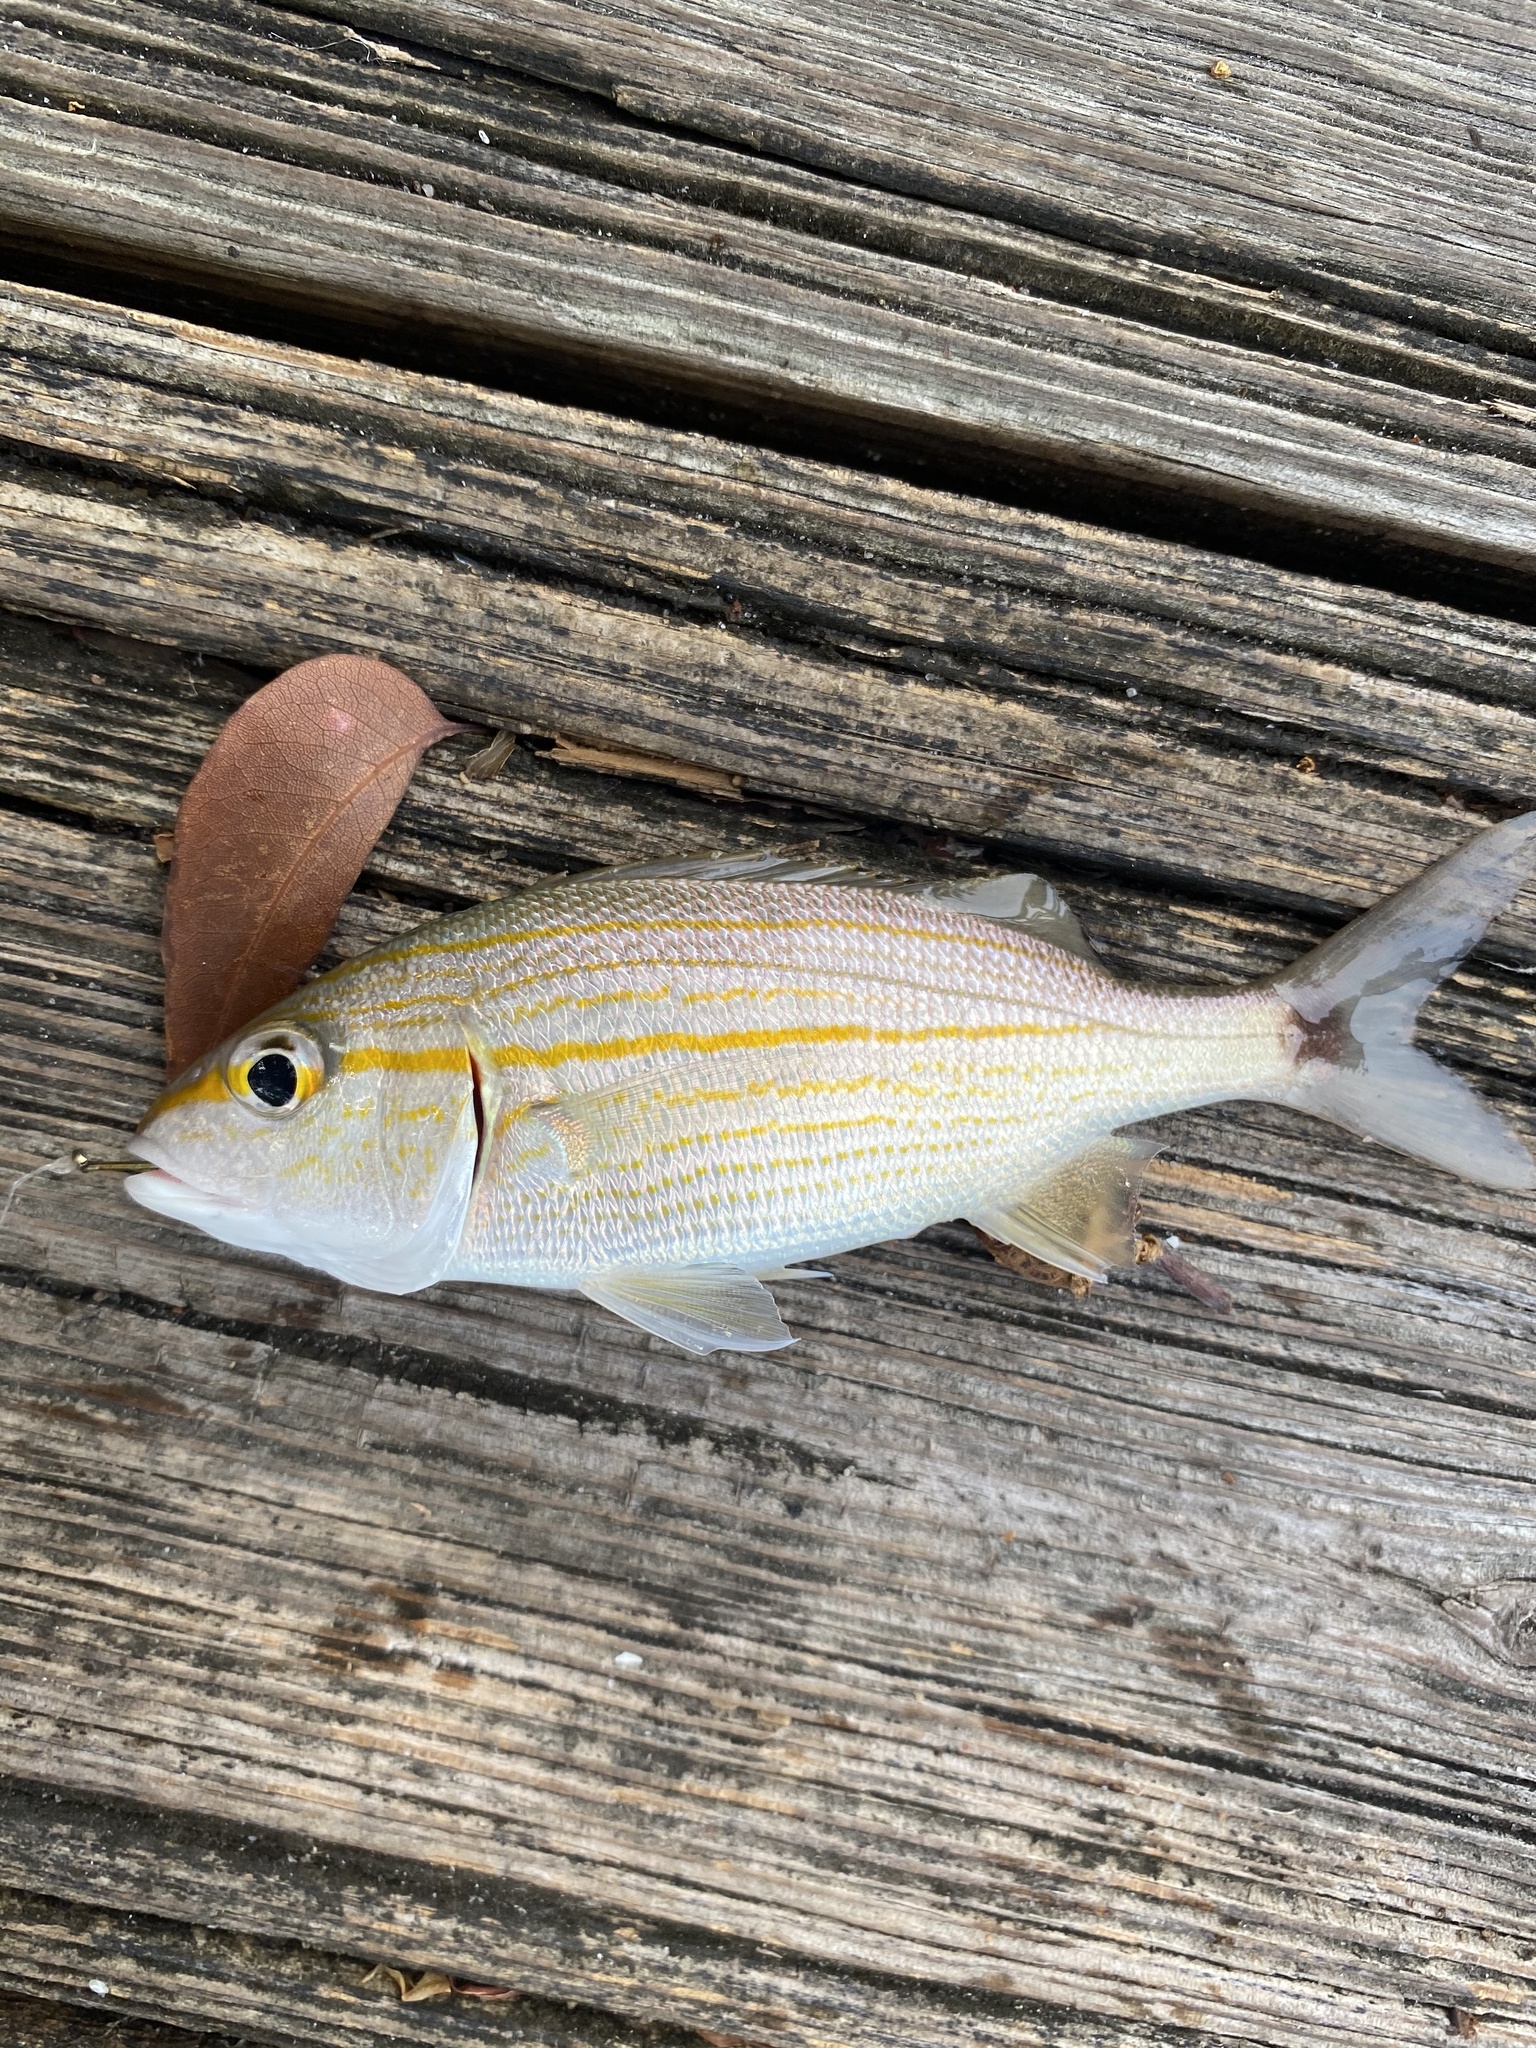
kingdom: Animalia
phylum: Chordata
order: Perciformes
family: Haemulidae
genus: Haemulon
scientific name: Haemulon aurolineatum
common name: Tomtate
